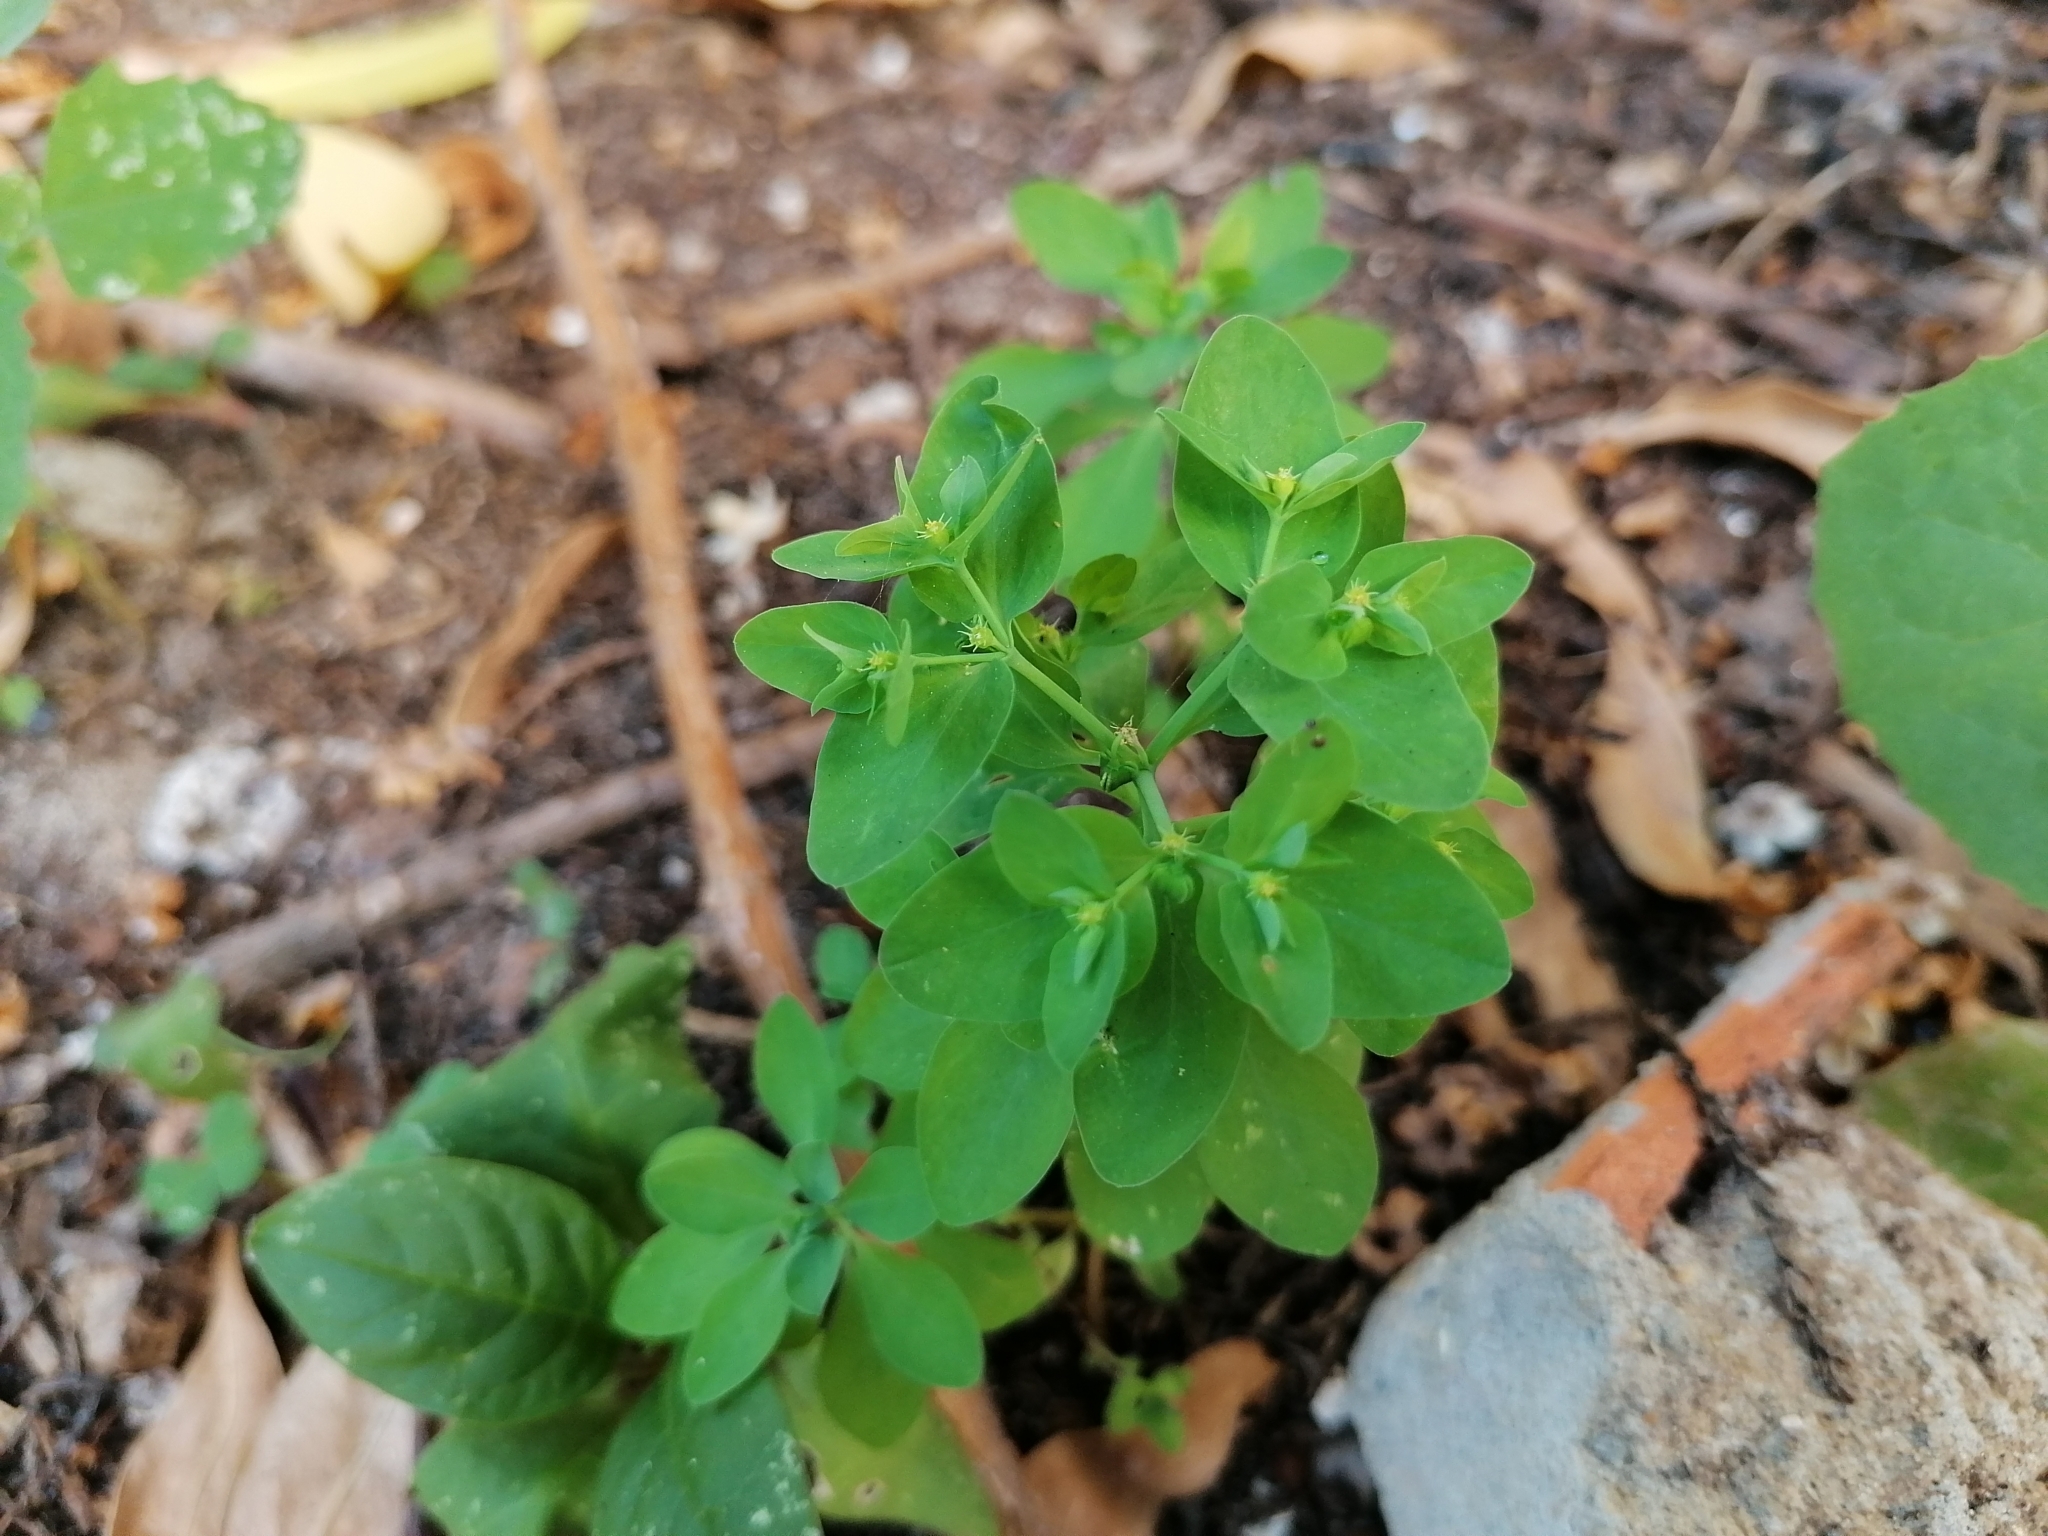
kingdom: Plantae
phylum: Tracheophyta
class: Magnoliopsida
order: Malpighiales
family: Euphorbiaceae
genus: Euphorbia
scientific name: Euphorbia peplus
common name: Petty spurge
